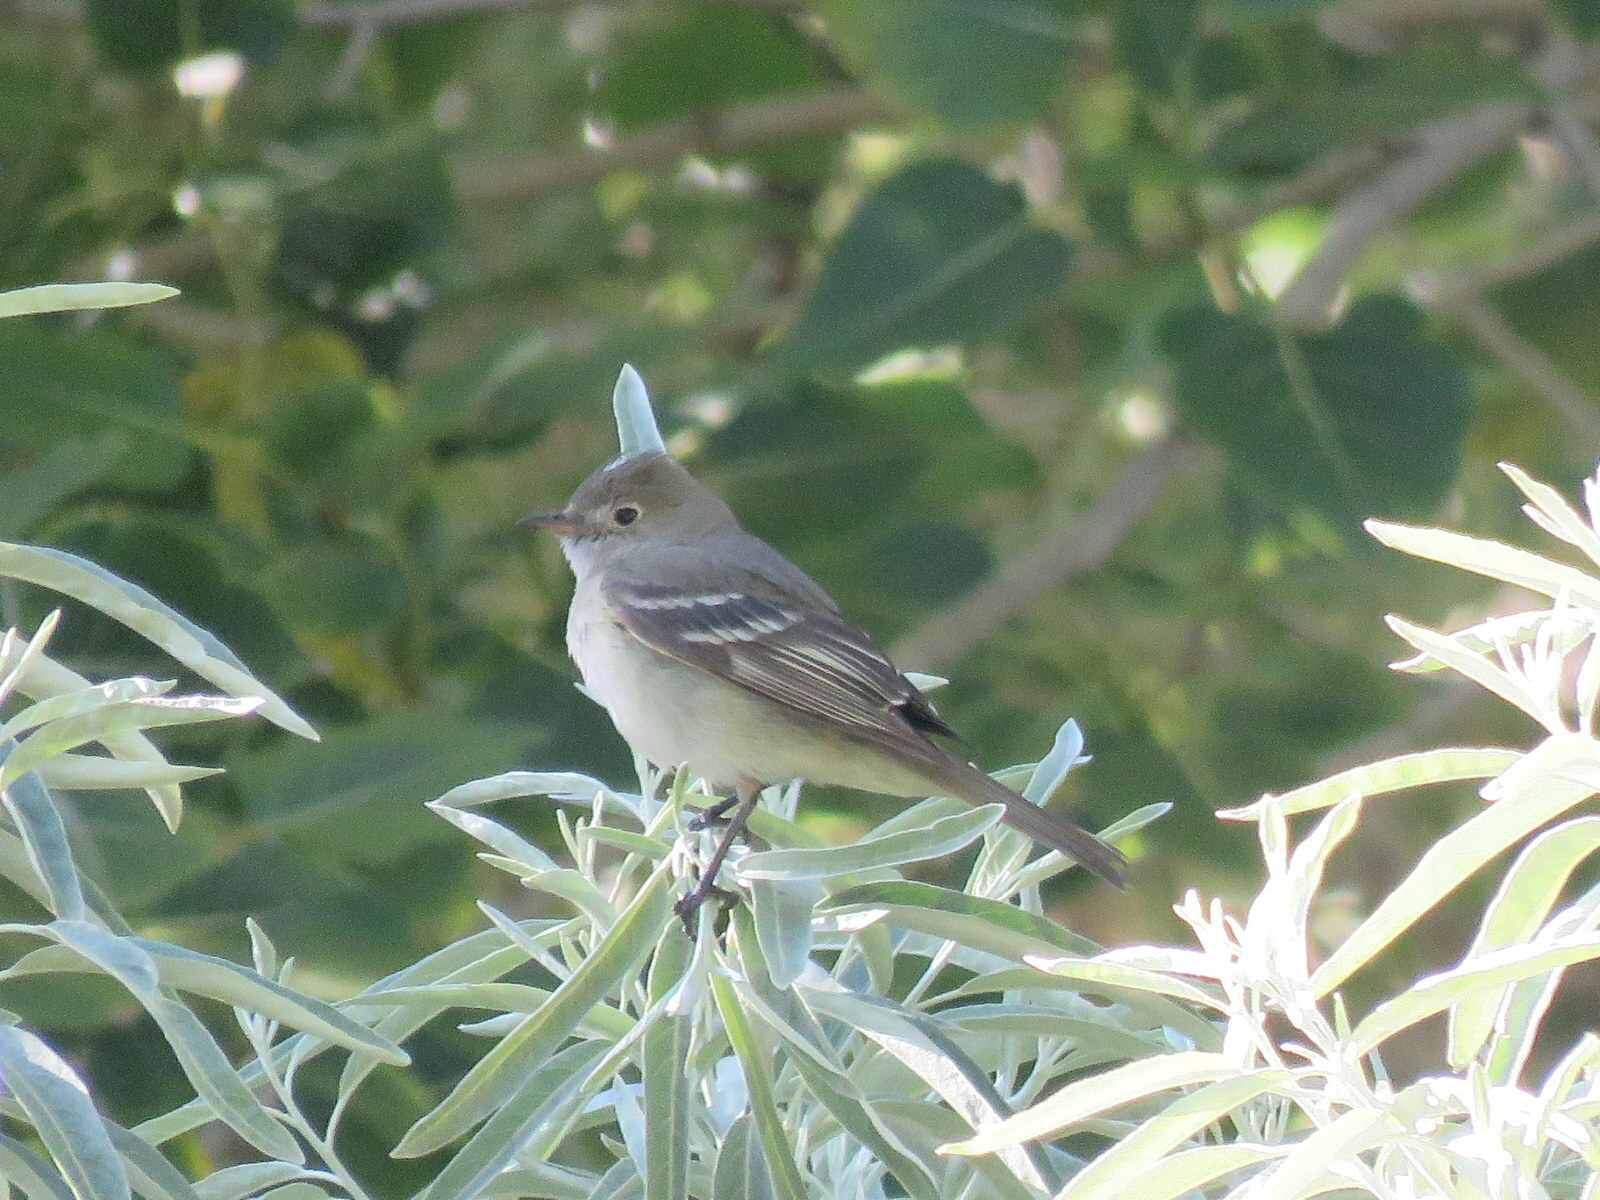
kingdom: Animalia
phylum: Chordata
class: Aves
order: Passeriformes
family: Tyrannidae
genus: Elaenia
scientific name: Elaenia albiceps
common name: White-crested elaenia
